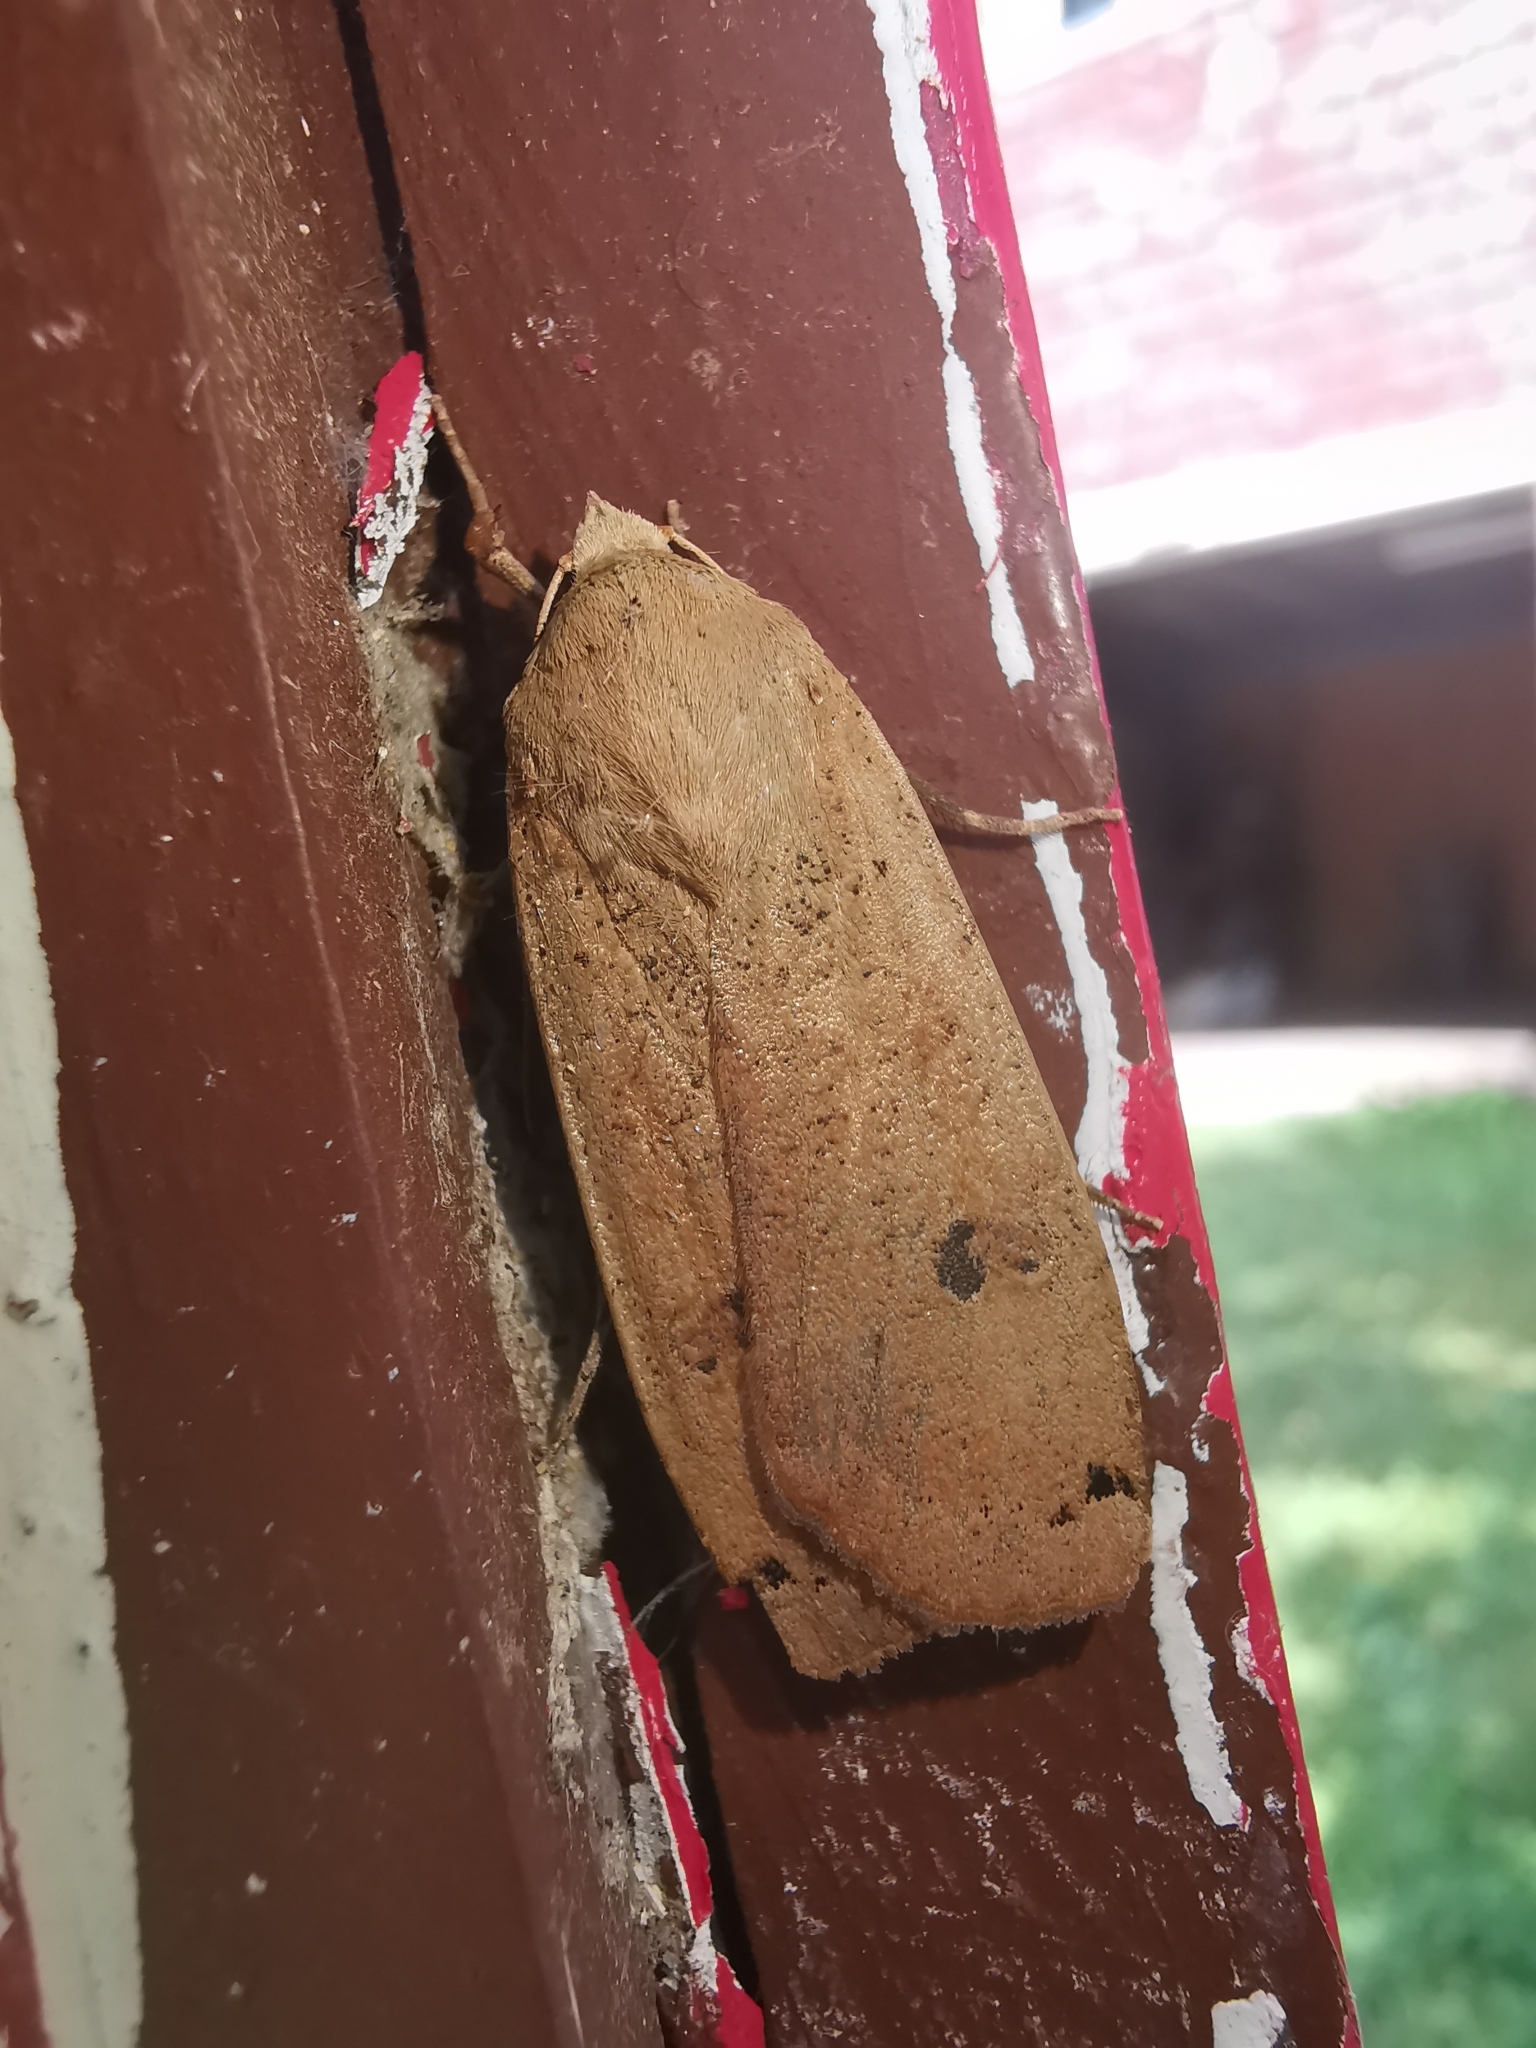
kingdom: Animalia
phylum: Arthropoda
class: Insecta
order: Lepidoptera
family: Noctuidae
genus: Noctua
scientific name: Noctua pronuba
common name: Large yellow underwing
